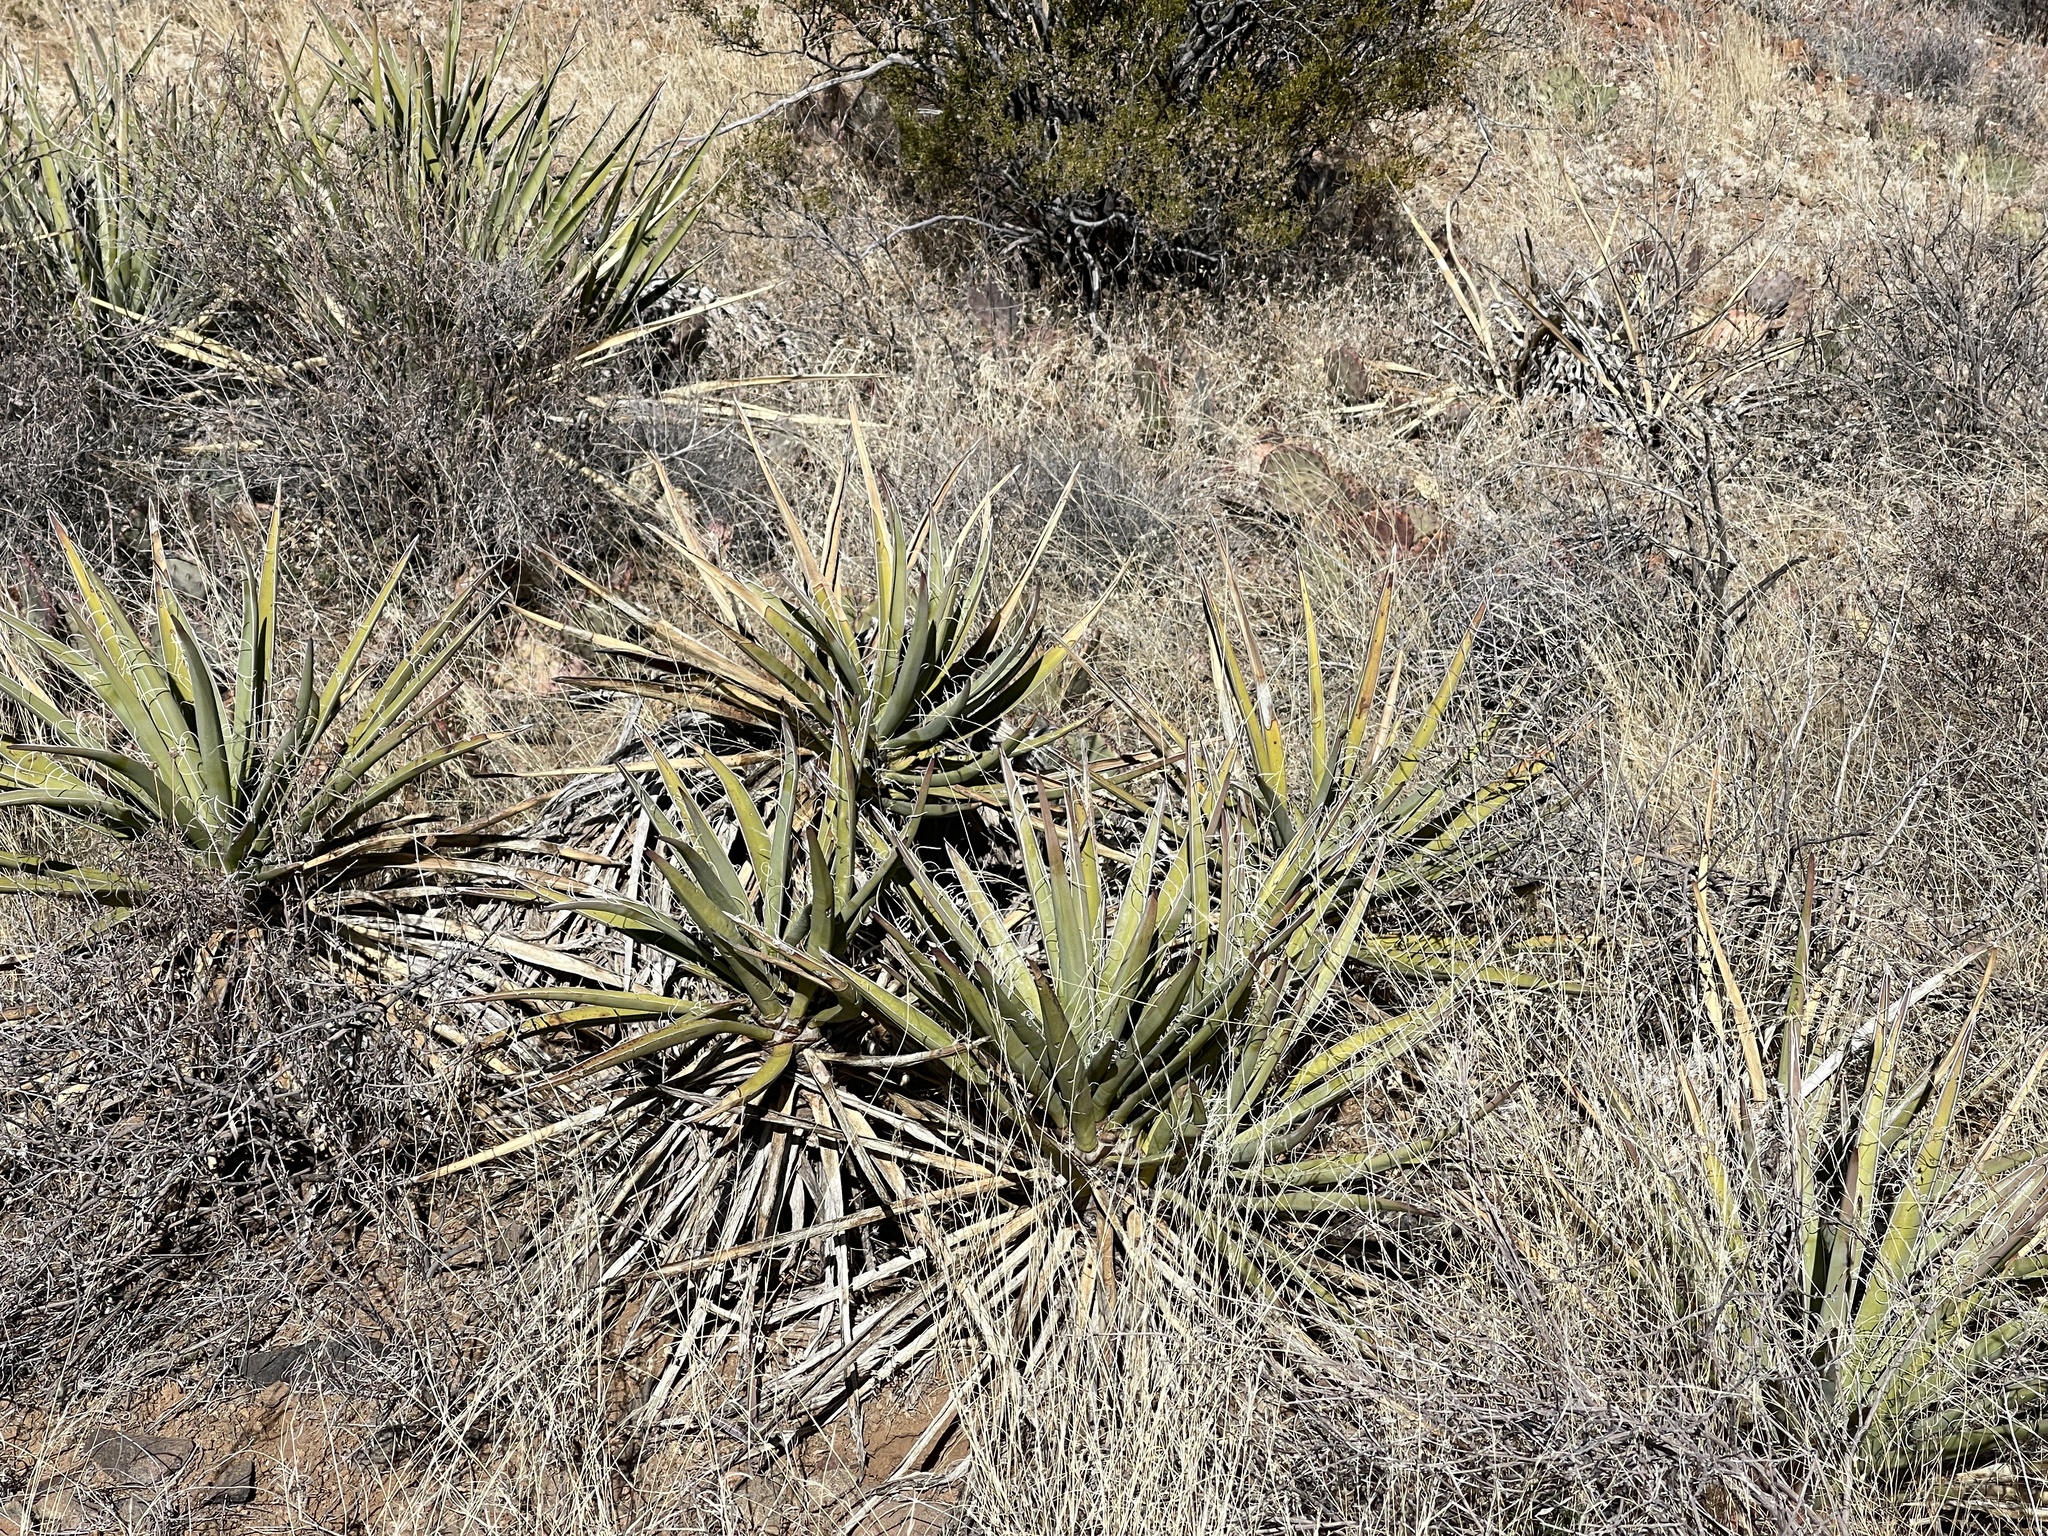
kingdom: Plantae
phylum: Tracheophyta
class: Liliopsida
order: Asparagales
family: Asparagaceae
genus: Yucca
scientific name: Yucca baccata
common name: Banana yucca
